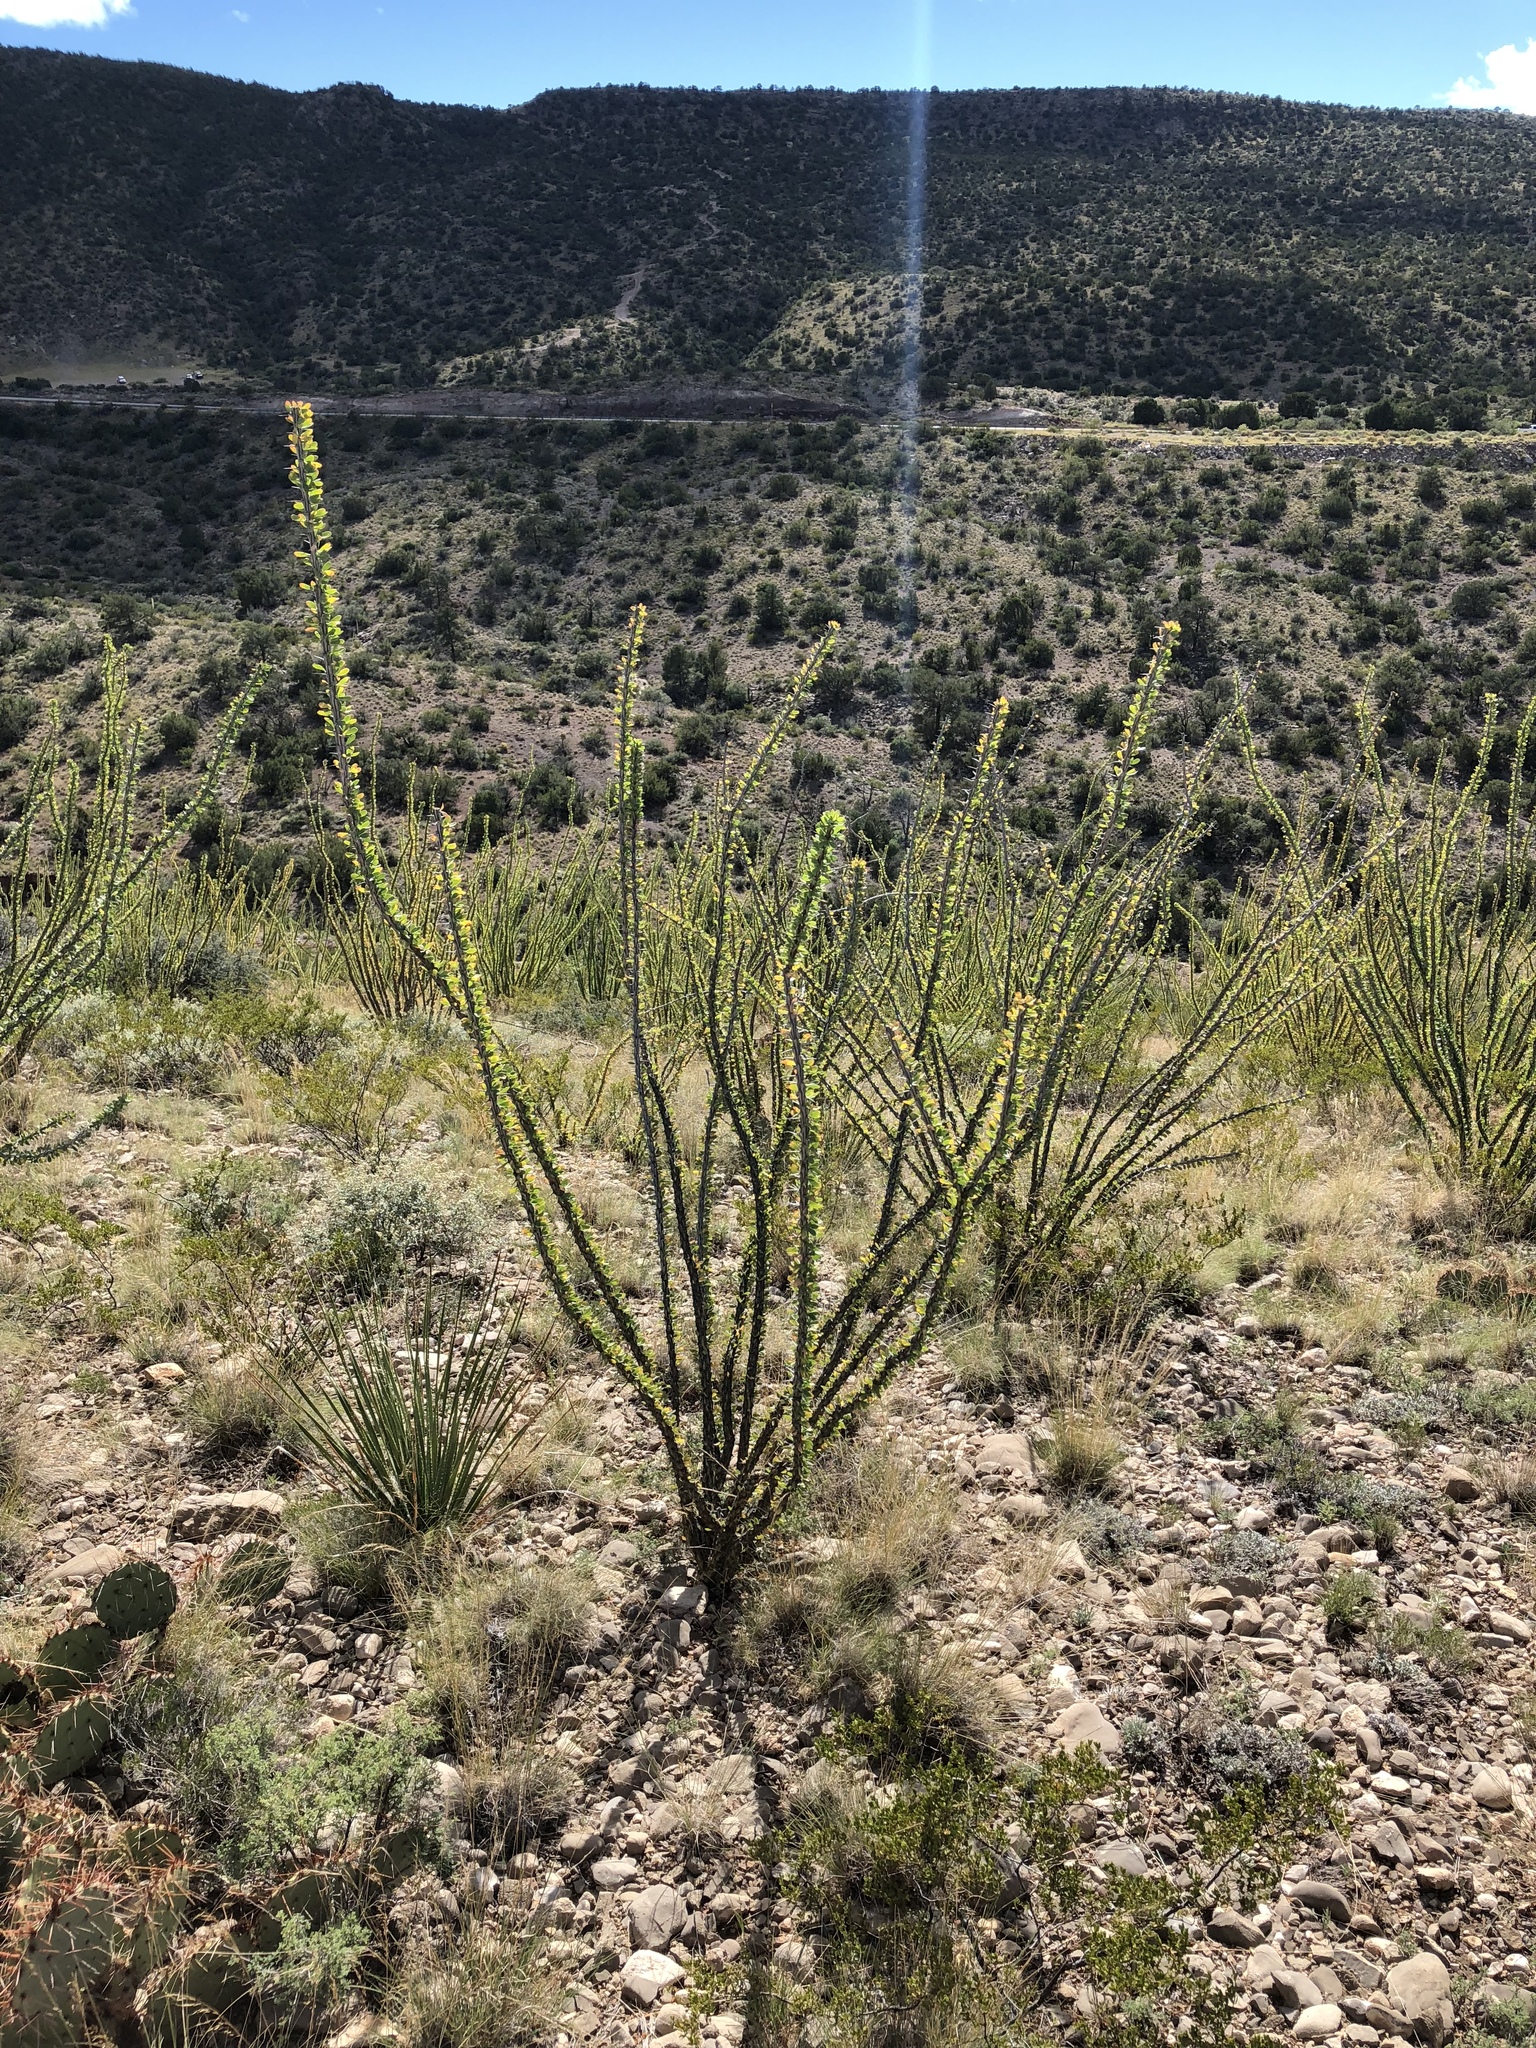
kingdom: Plantae
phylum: Tracheophyta
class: Magnoliopsida
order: Ericales
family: Fouquieriaceae
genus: Fouquieria
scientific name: Fouquieria splendens
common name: Vine-cactus
